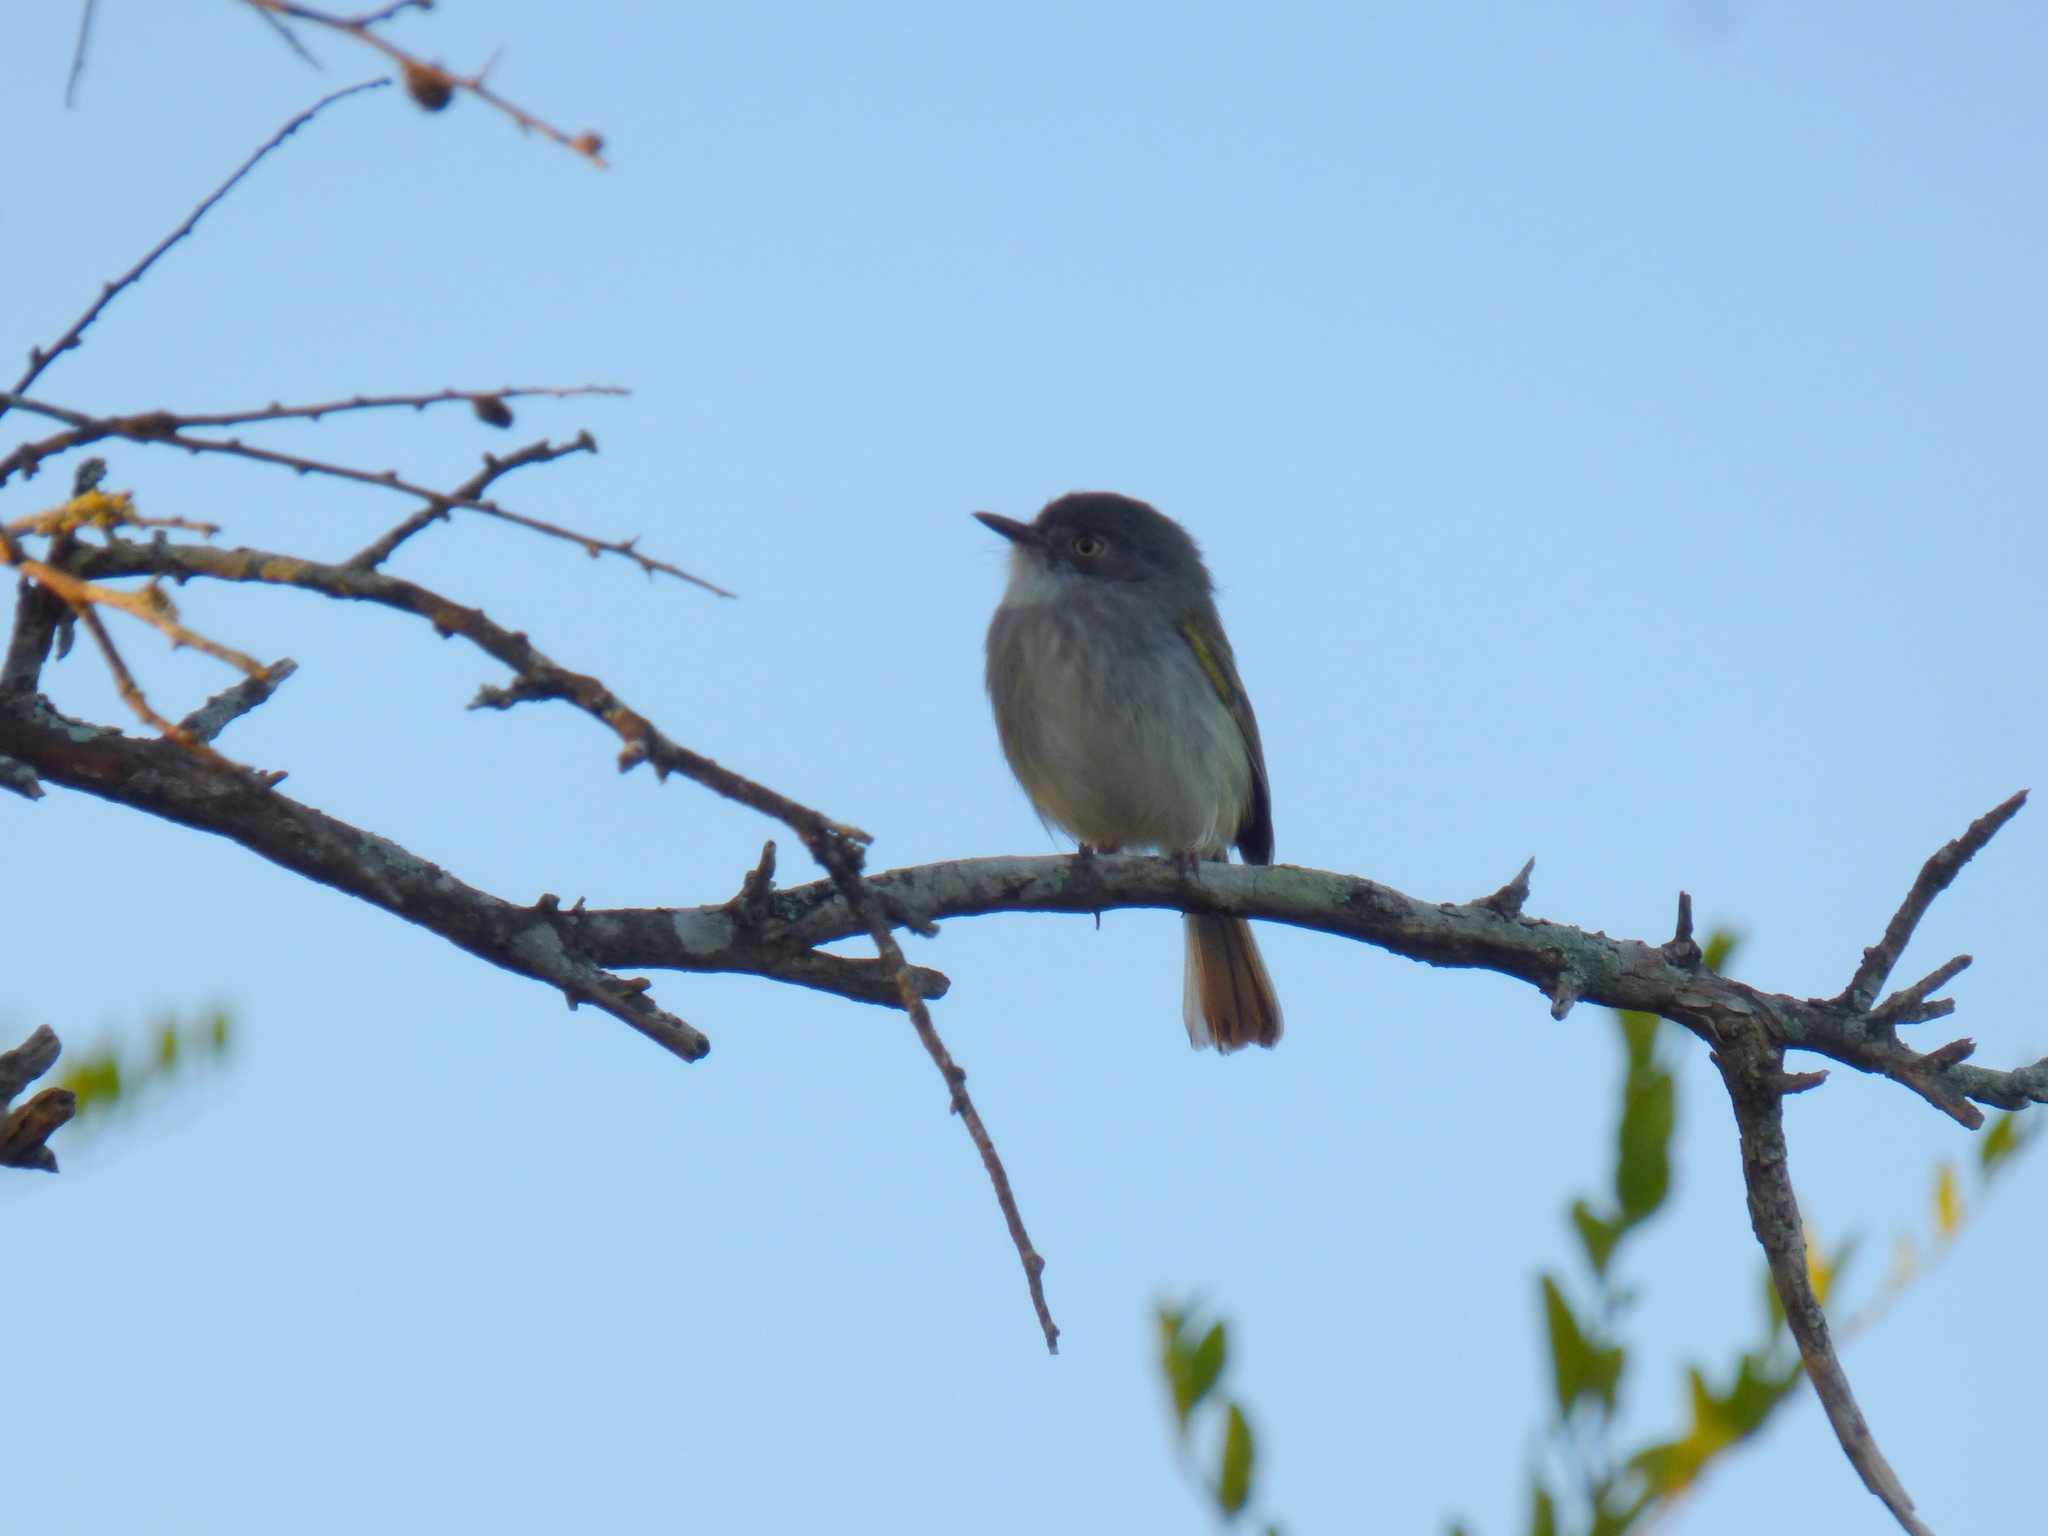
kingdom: Animalia
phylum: Chordata
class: Aves
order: Passeriformes
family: Tyrannidae
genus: Hemitriccus
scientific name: Hemitriccus margaritaceiventer
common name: Pearly-vented tody-tyrant
